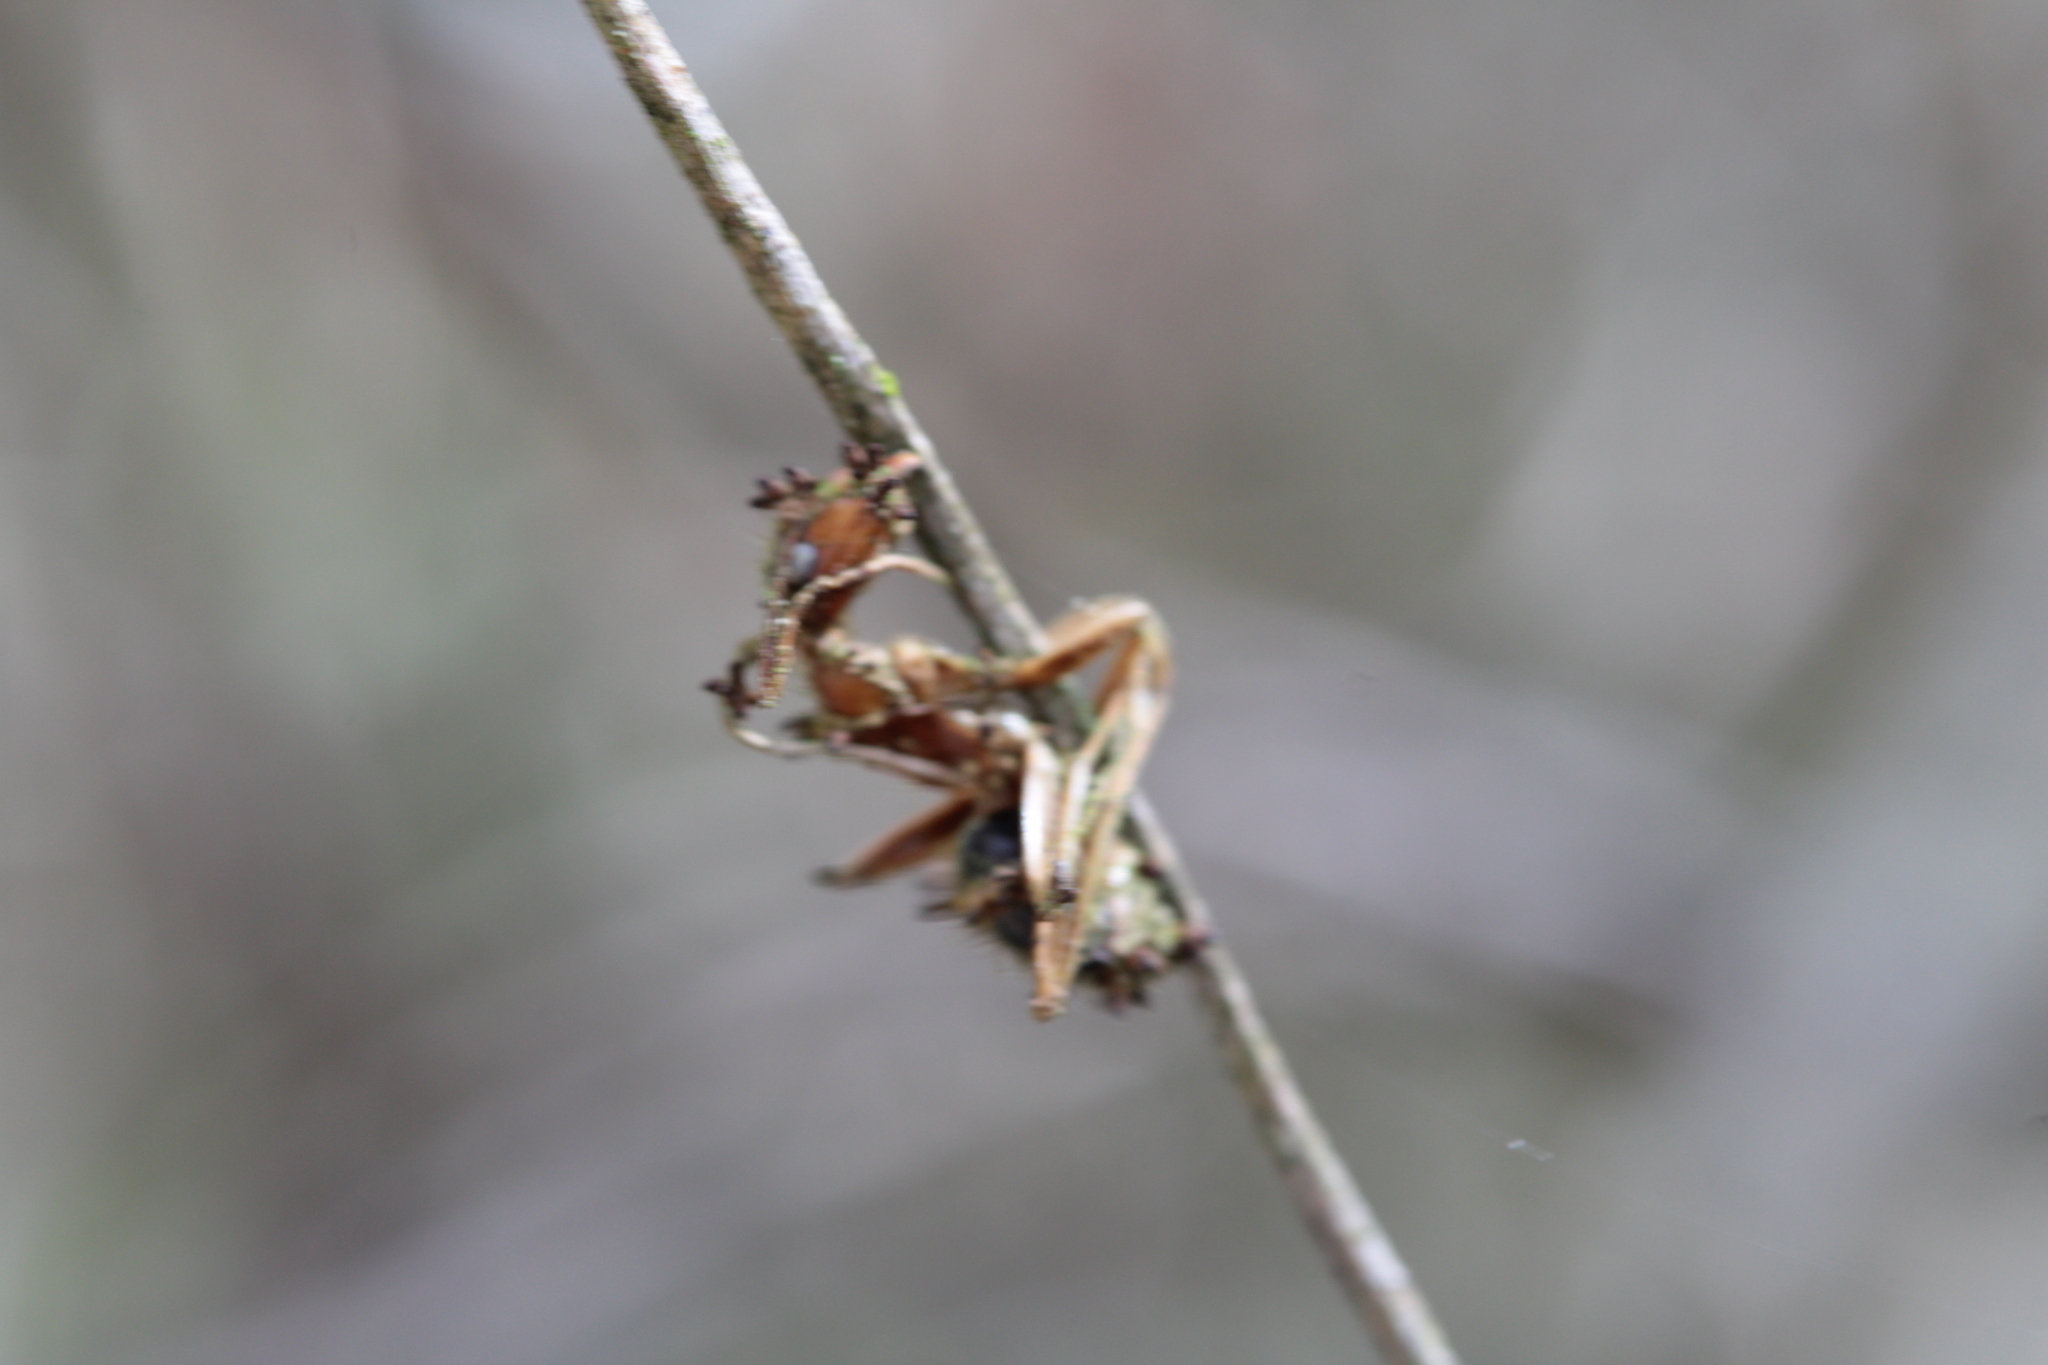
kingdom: Fungi
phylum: Ascomycota
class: Sordariomycetes
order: Hypocreales
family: Ophiocordycipitaceae
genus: Ophiocordyceps
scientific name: Ophiocordyceps camponoti-floridani
